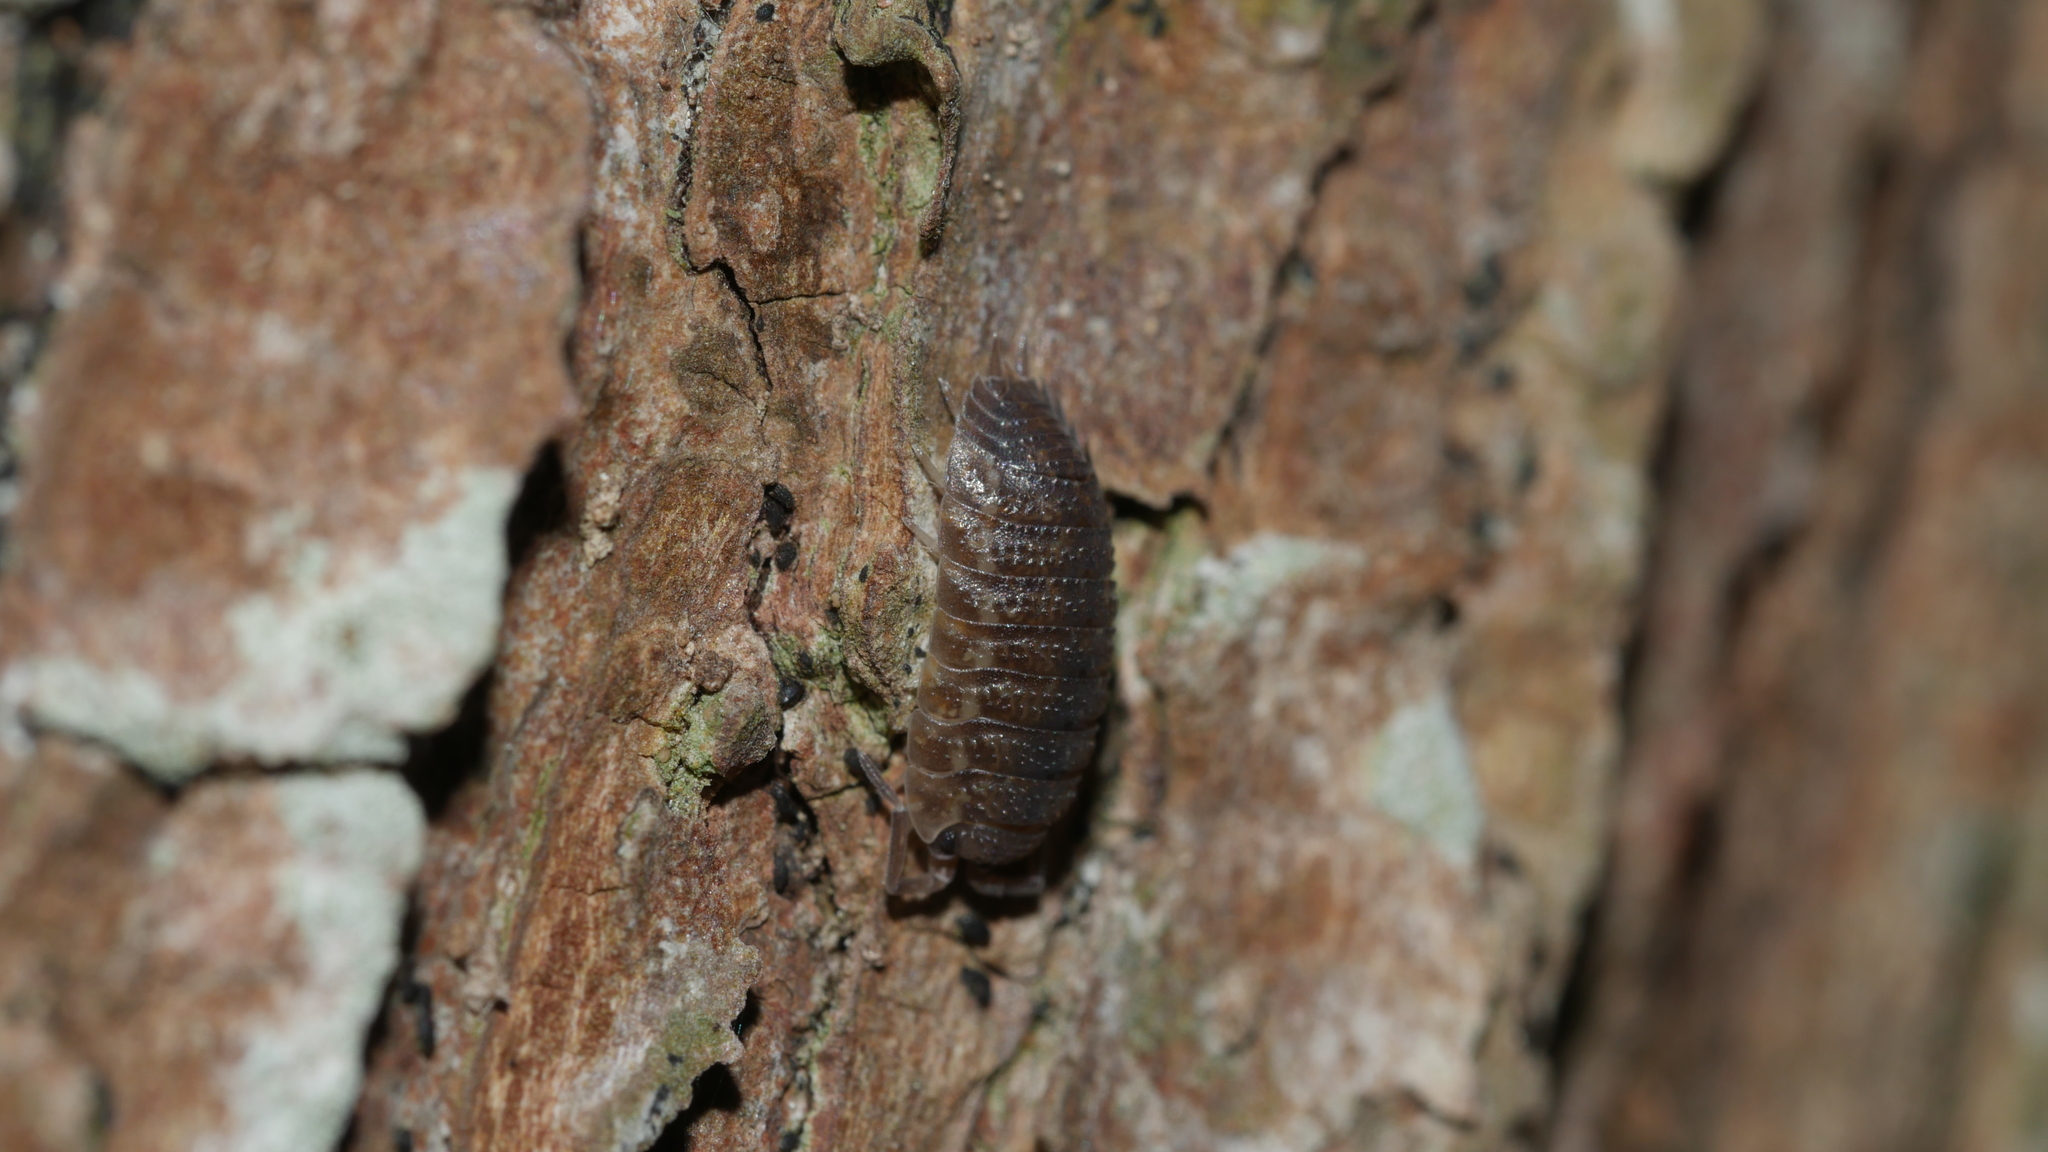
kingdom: Animalia
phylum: Arthropoda
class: Malacostraca
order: Isopoda
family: Porcellionidae
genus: Porcellio
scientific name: Porcellio scaber
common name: Common rough woodlouse
